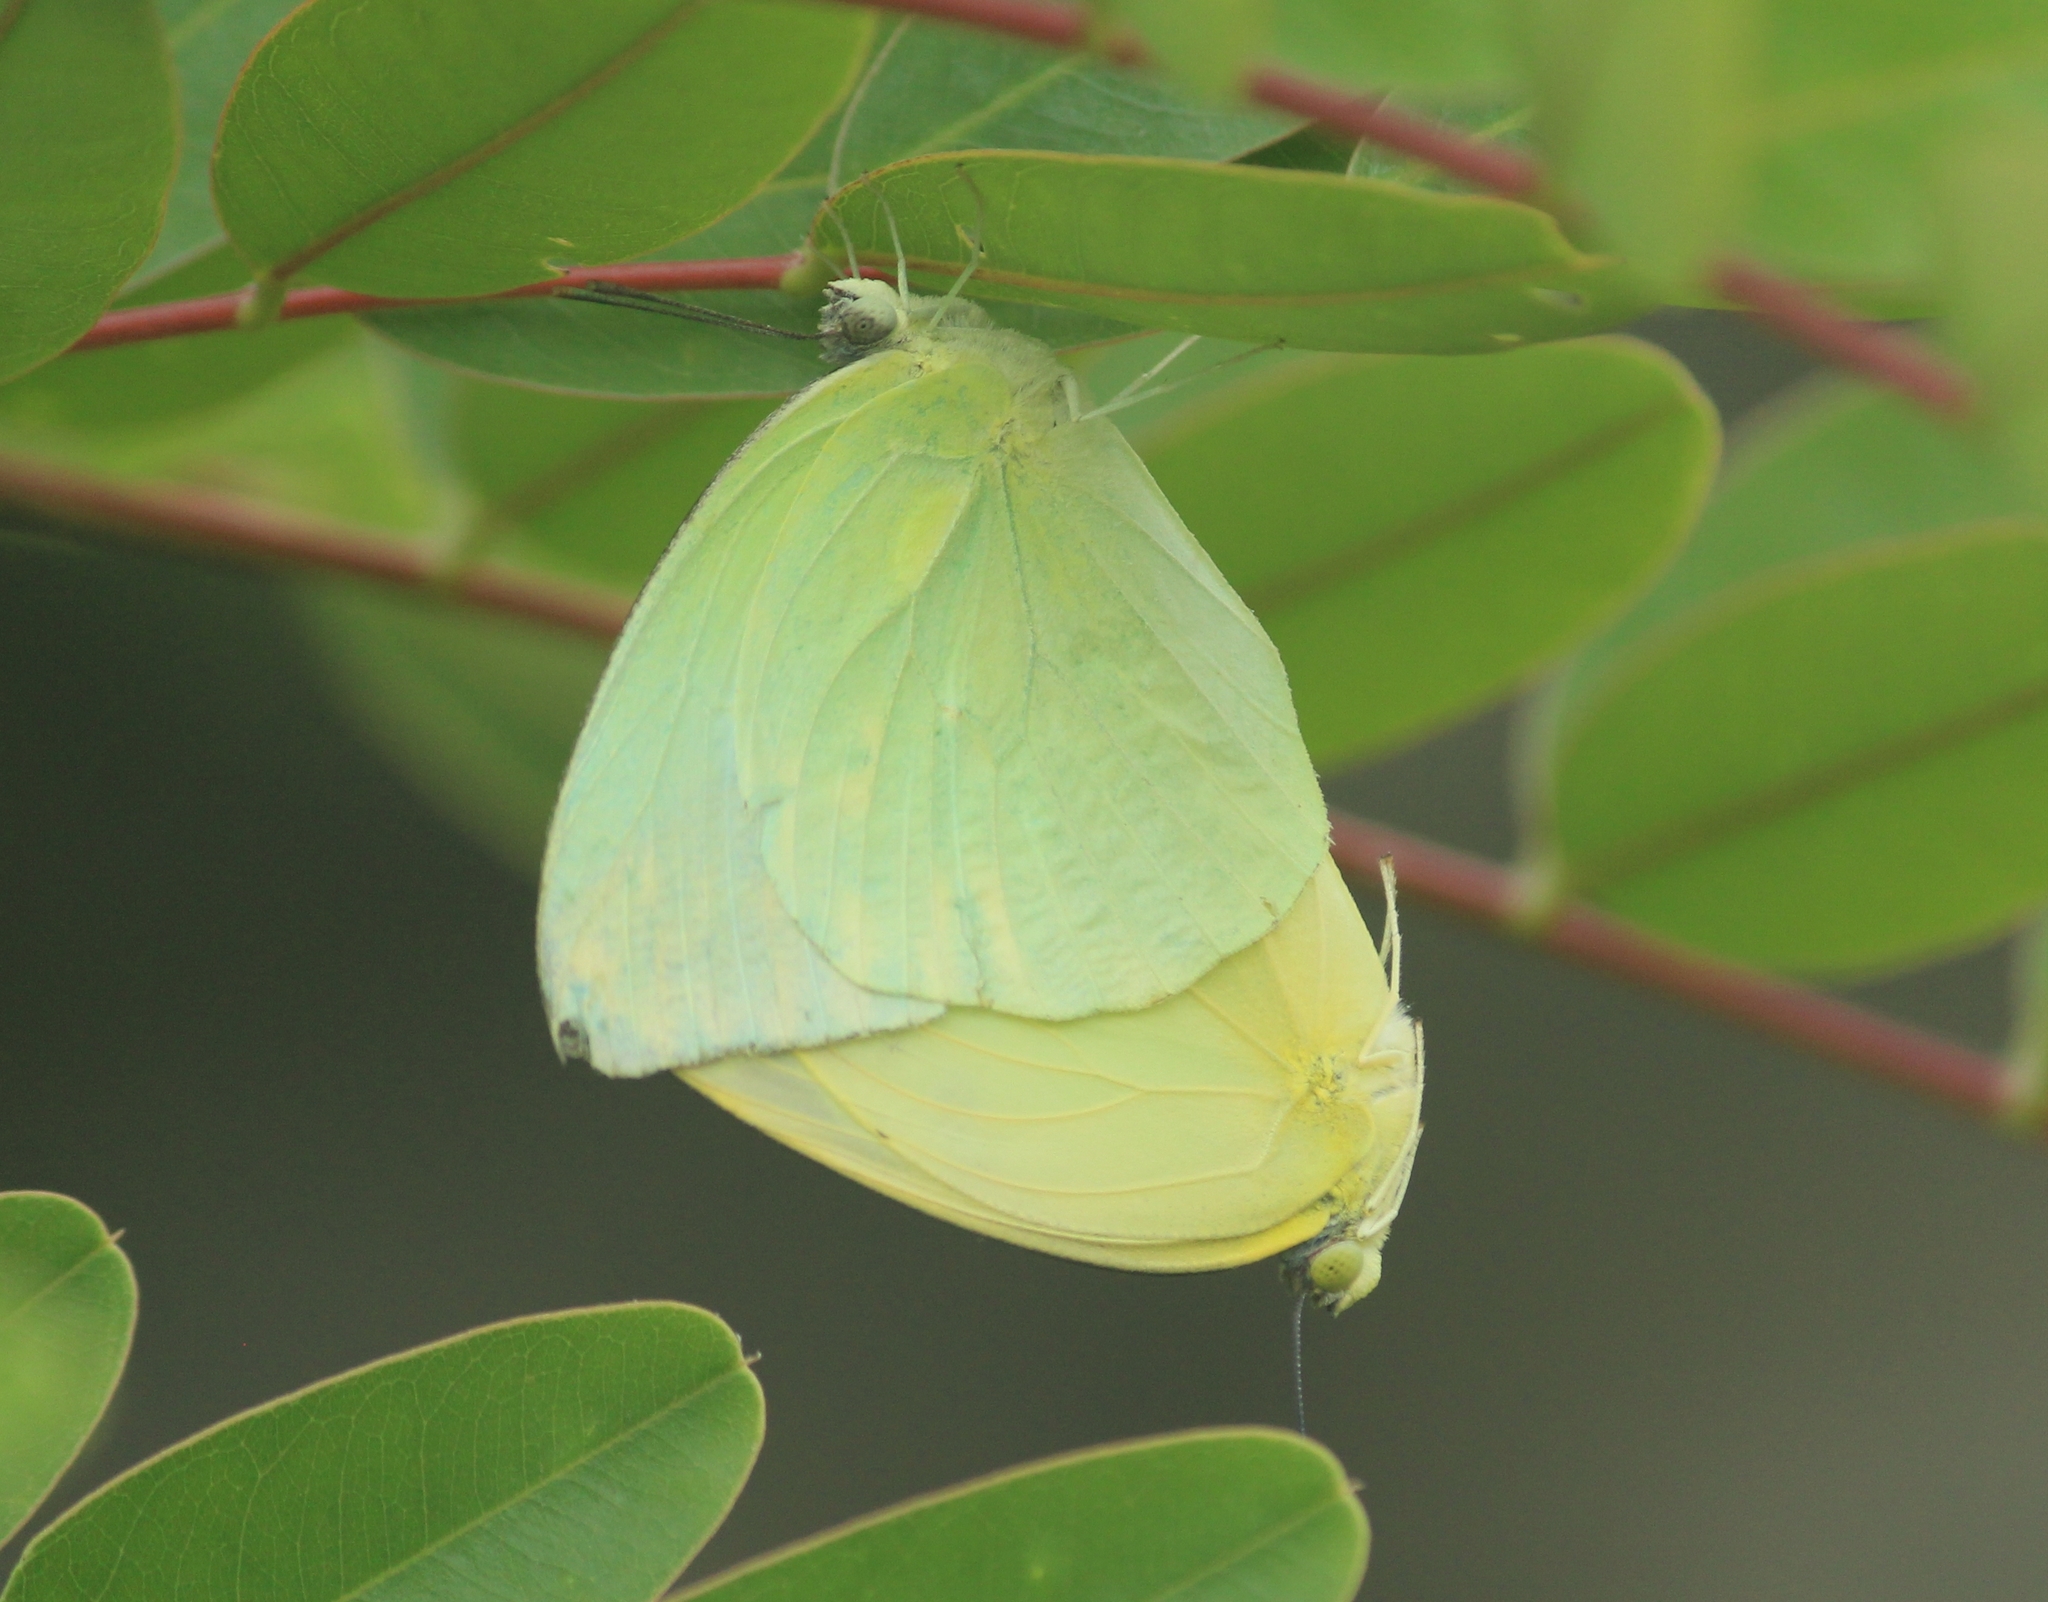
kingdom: Animalia
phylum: Arthropoda
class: Insecta
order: Lepidoptera
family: Pieridae
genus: Catopsilia
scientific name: Catopsilia pomona
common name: Common emigrant
